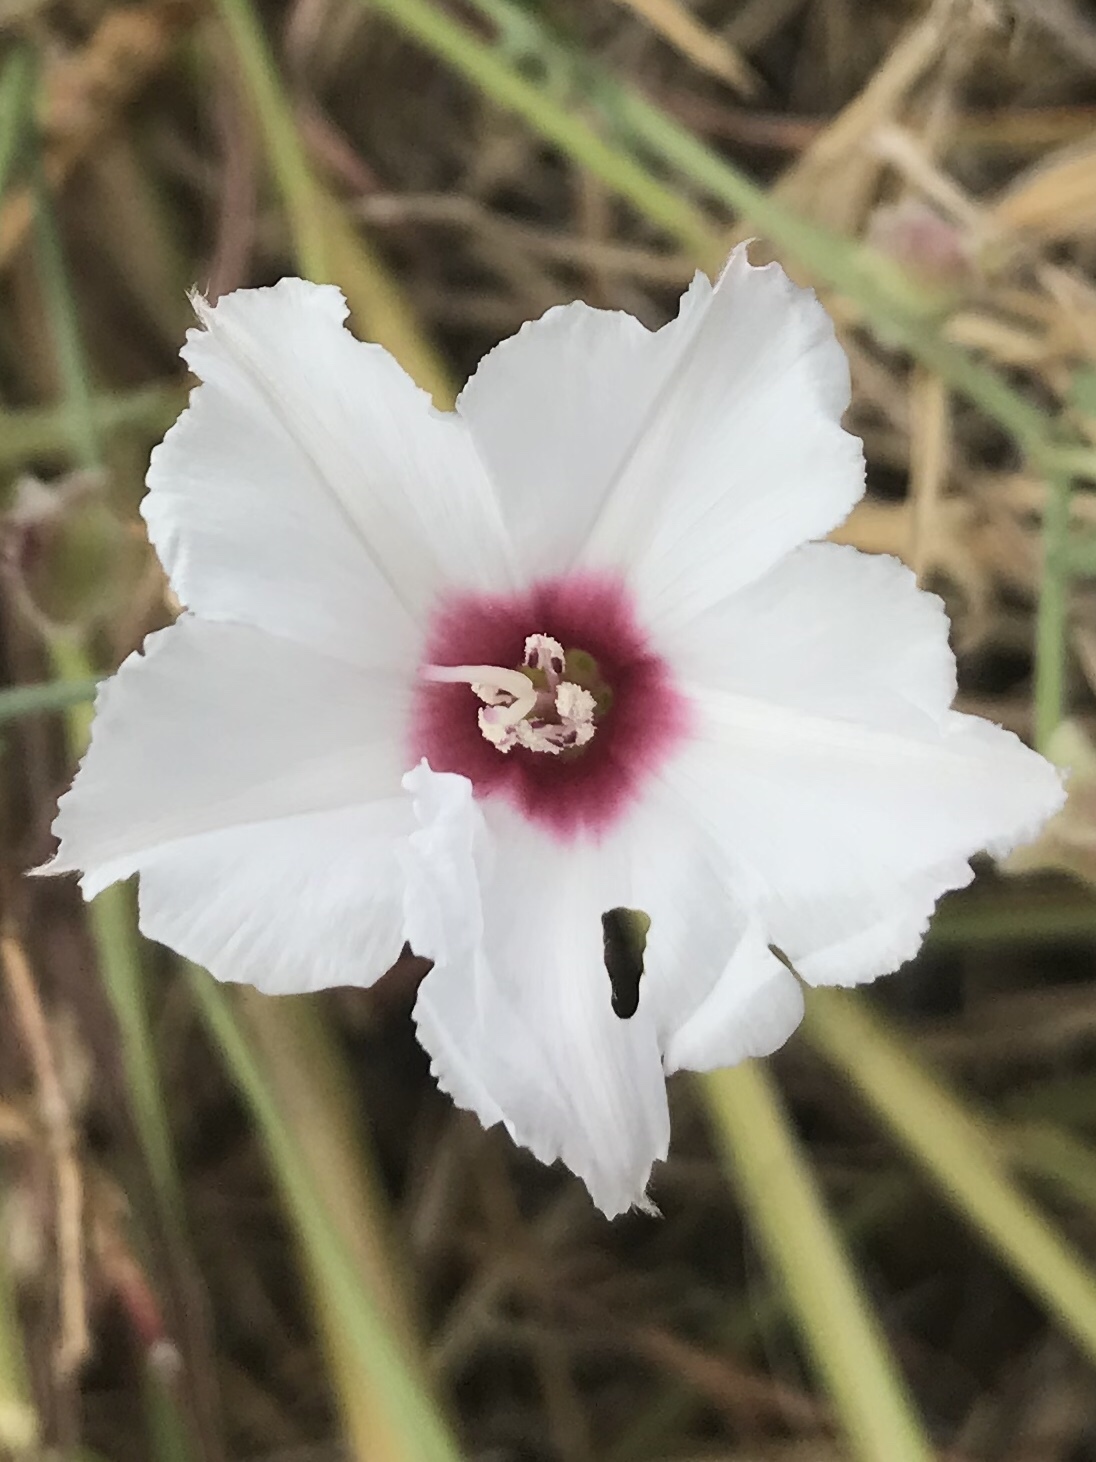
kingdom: Plantae
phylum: Tracheophyta
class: Magnoliopsida
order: Solanales
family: Convolvulaceae
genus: Convolvulus
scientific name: Convolvulus equitans
